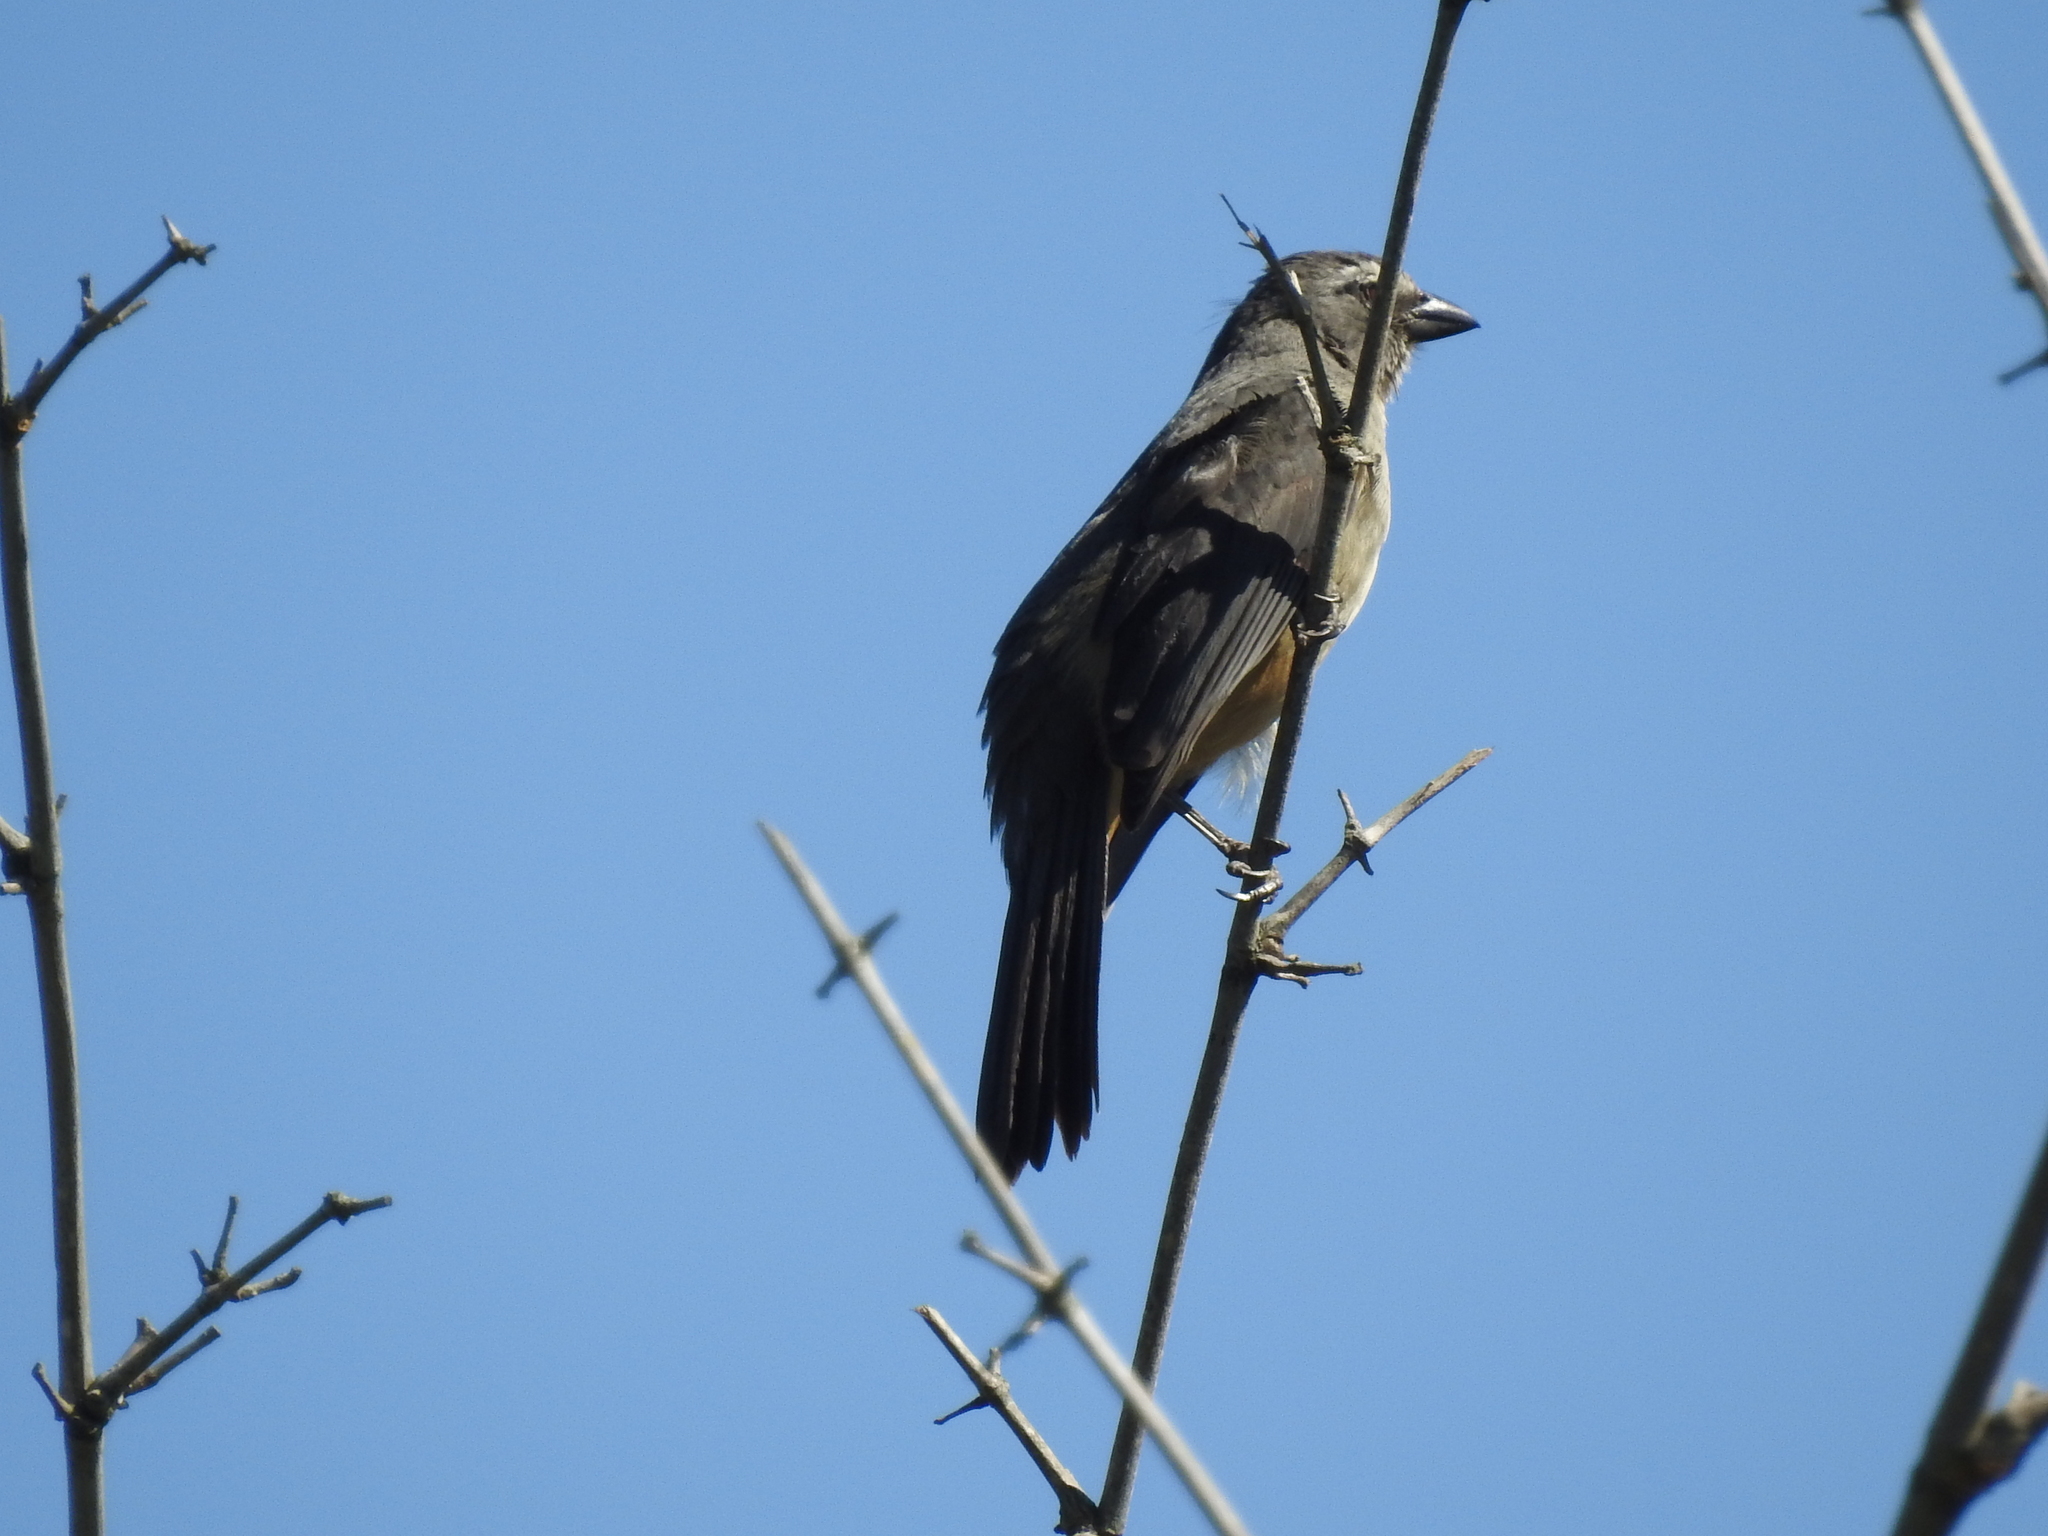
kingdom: Animalia
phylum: Chordata
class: Aves
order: Passeriformes
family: Thraupidae
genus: Saltator
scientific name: Saltator coerulescens
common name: Grayish saltator
